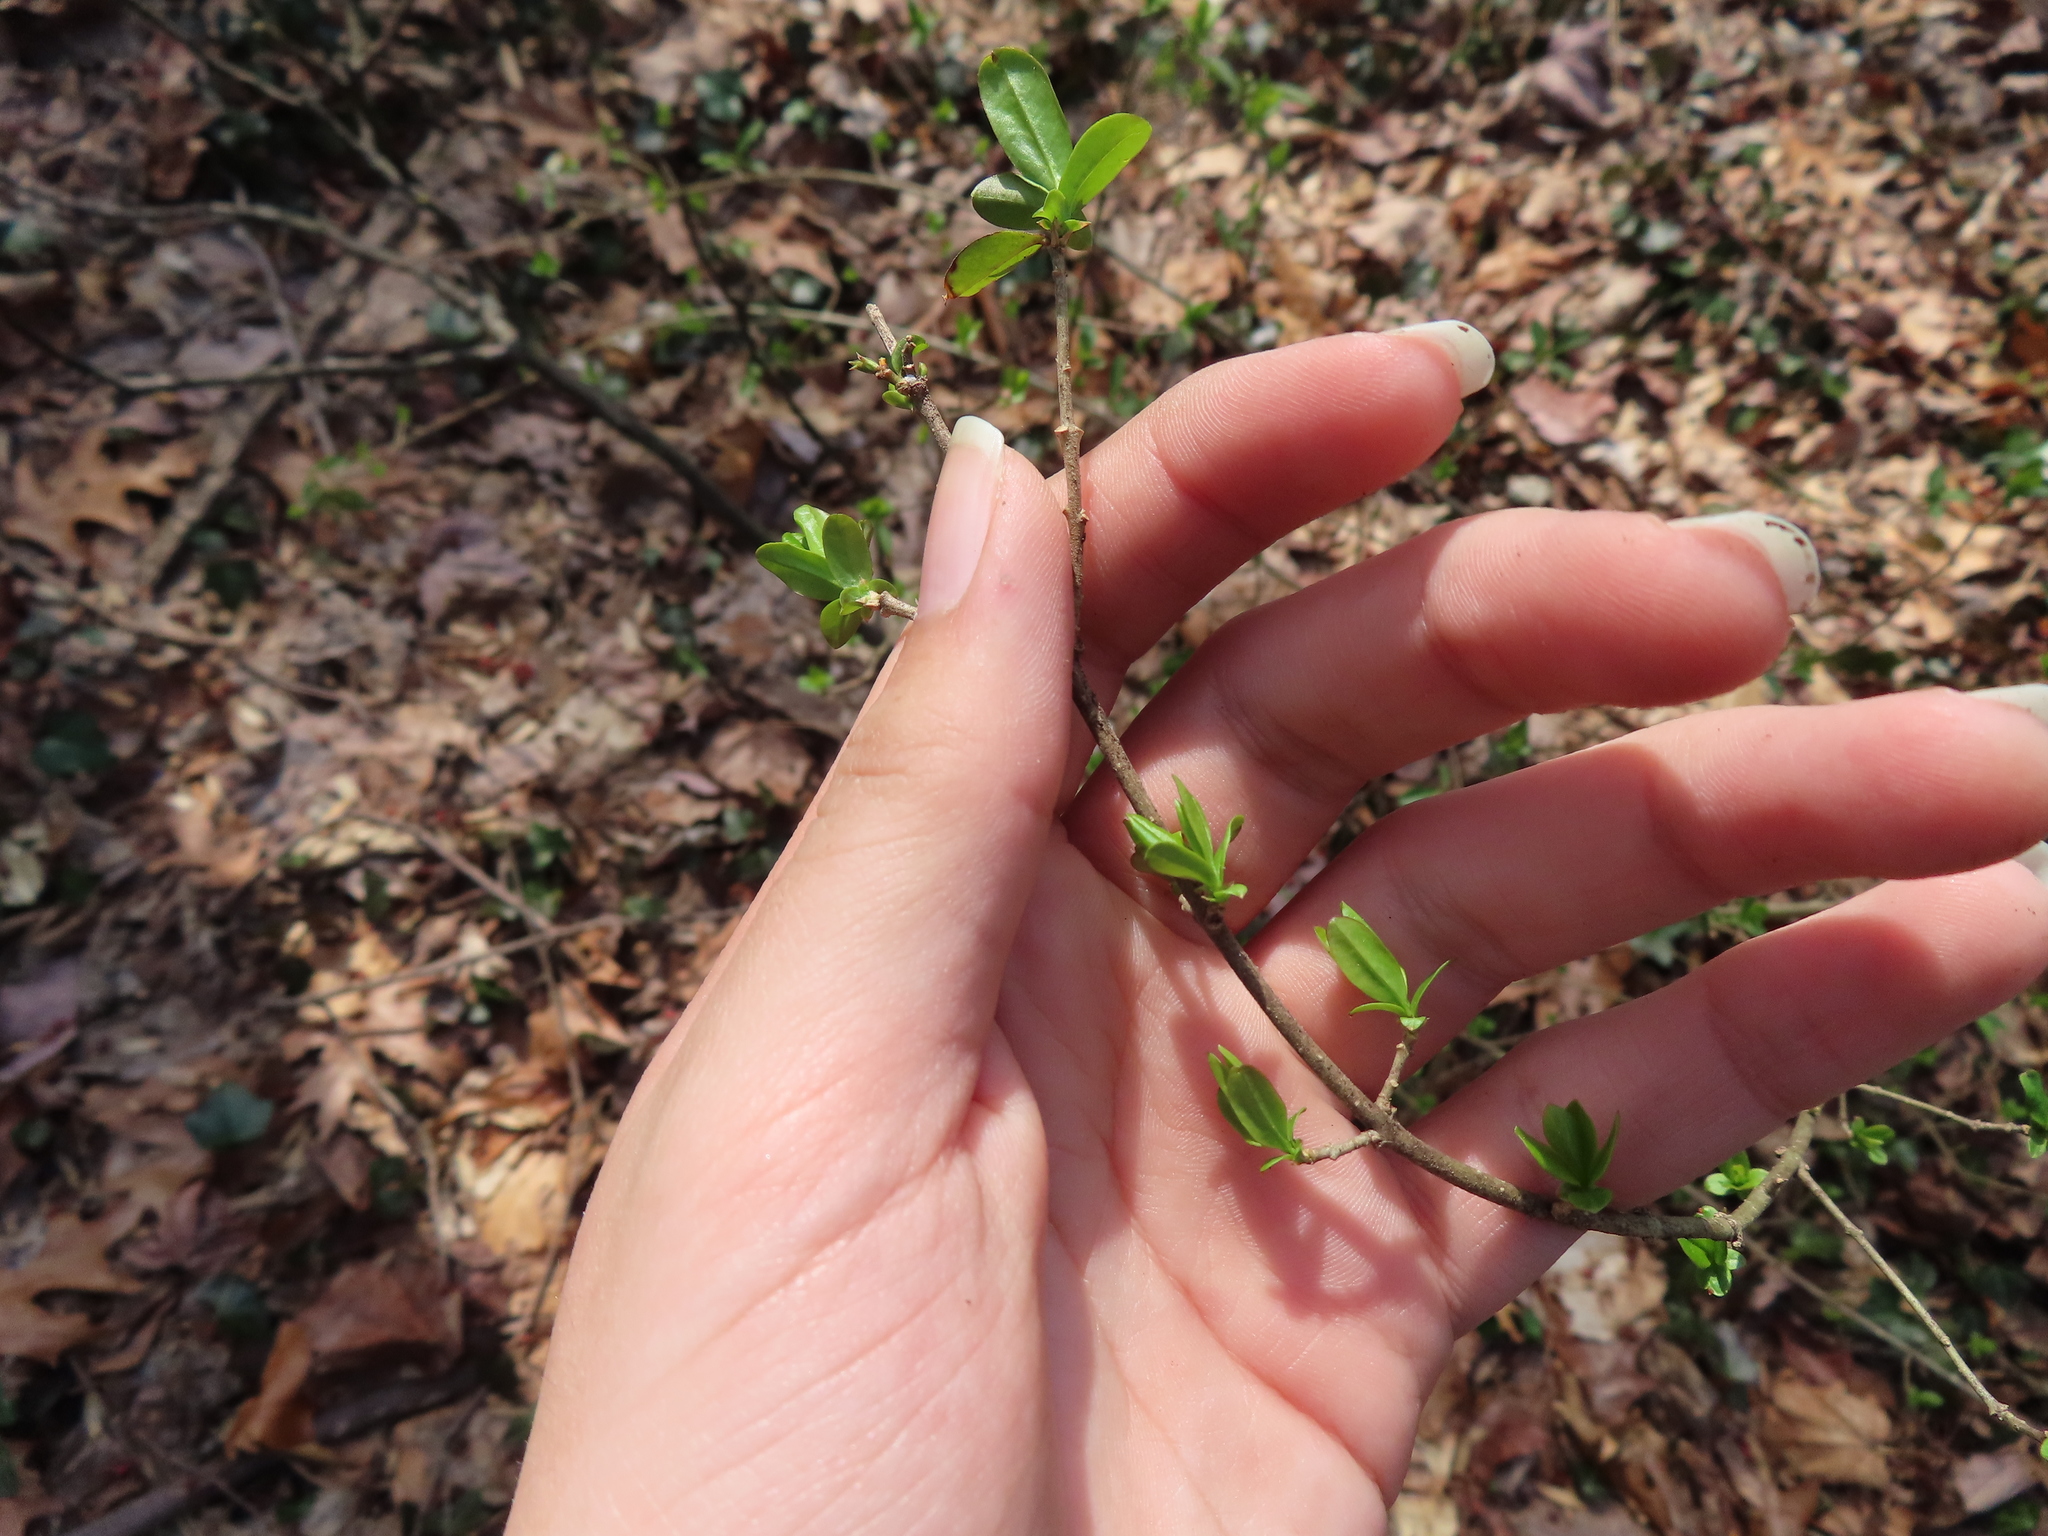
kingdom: Plantae
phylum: Tracheophyta
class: Magnoliopsida
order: Lamiales
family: Oleaceae
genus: Ligustrum
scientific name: Ligustrum obtusifolium
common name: Border privet
